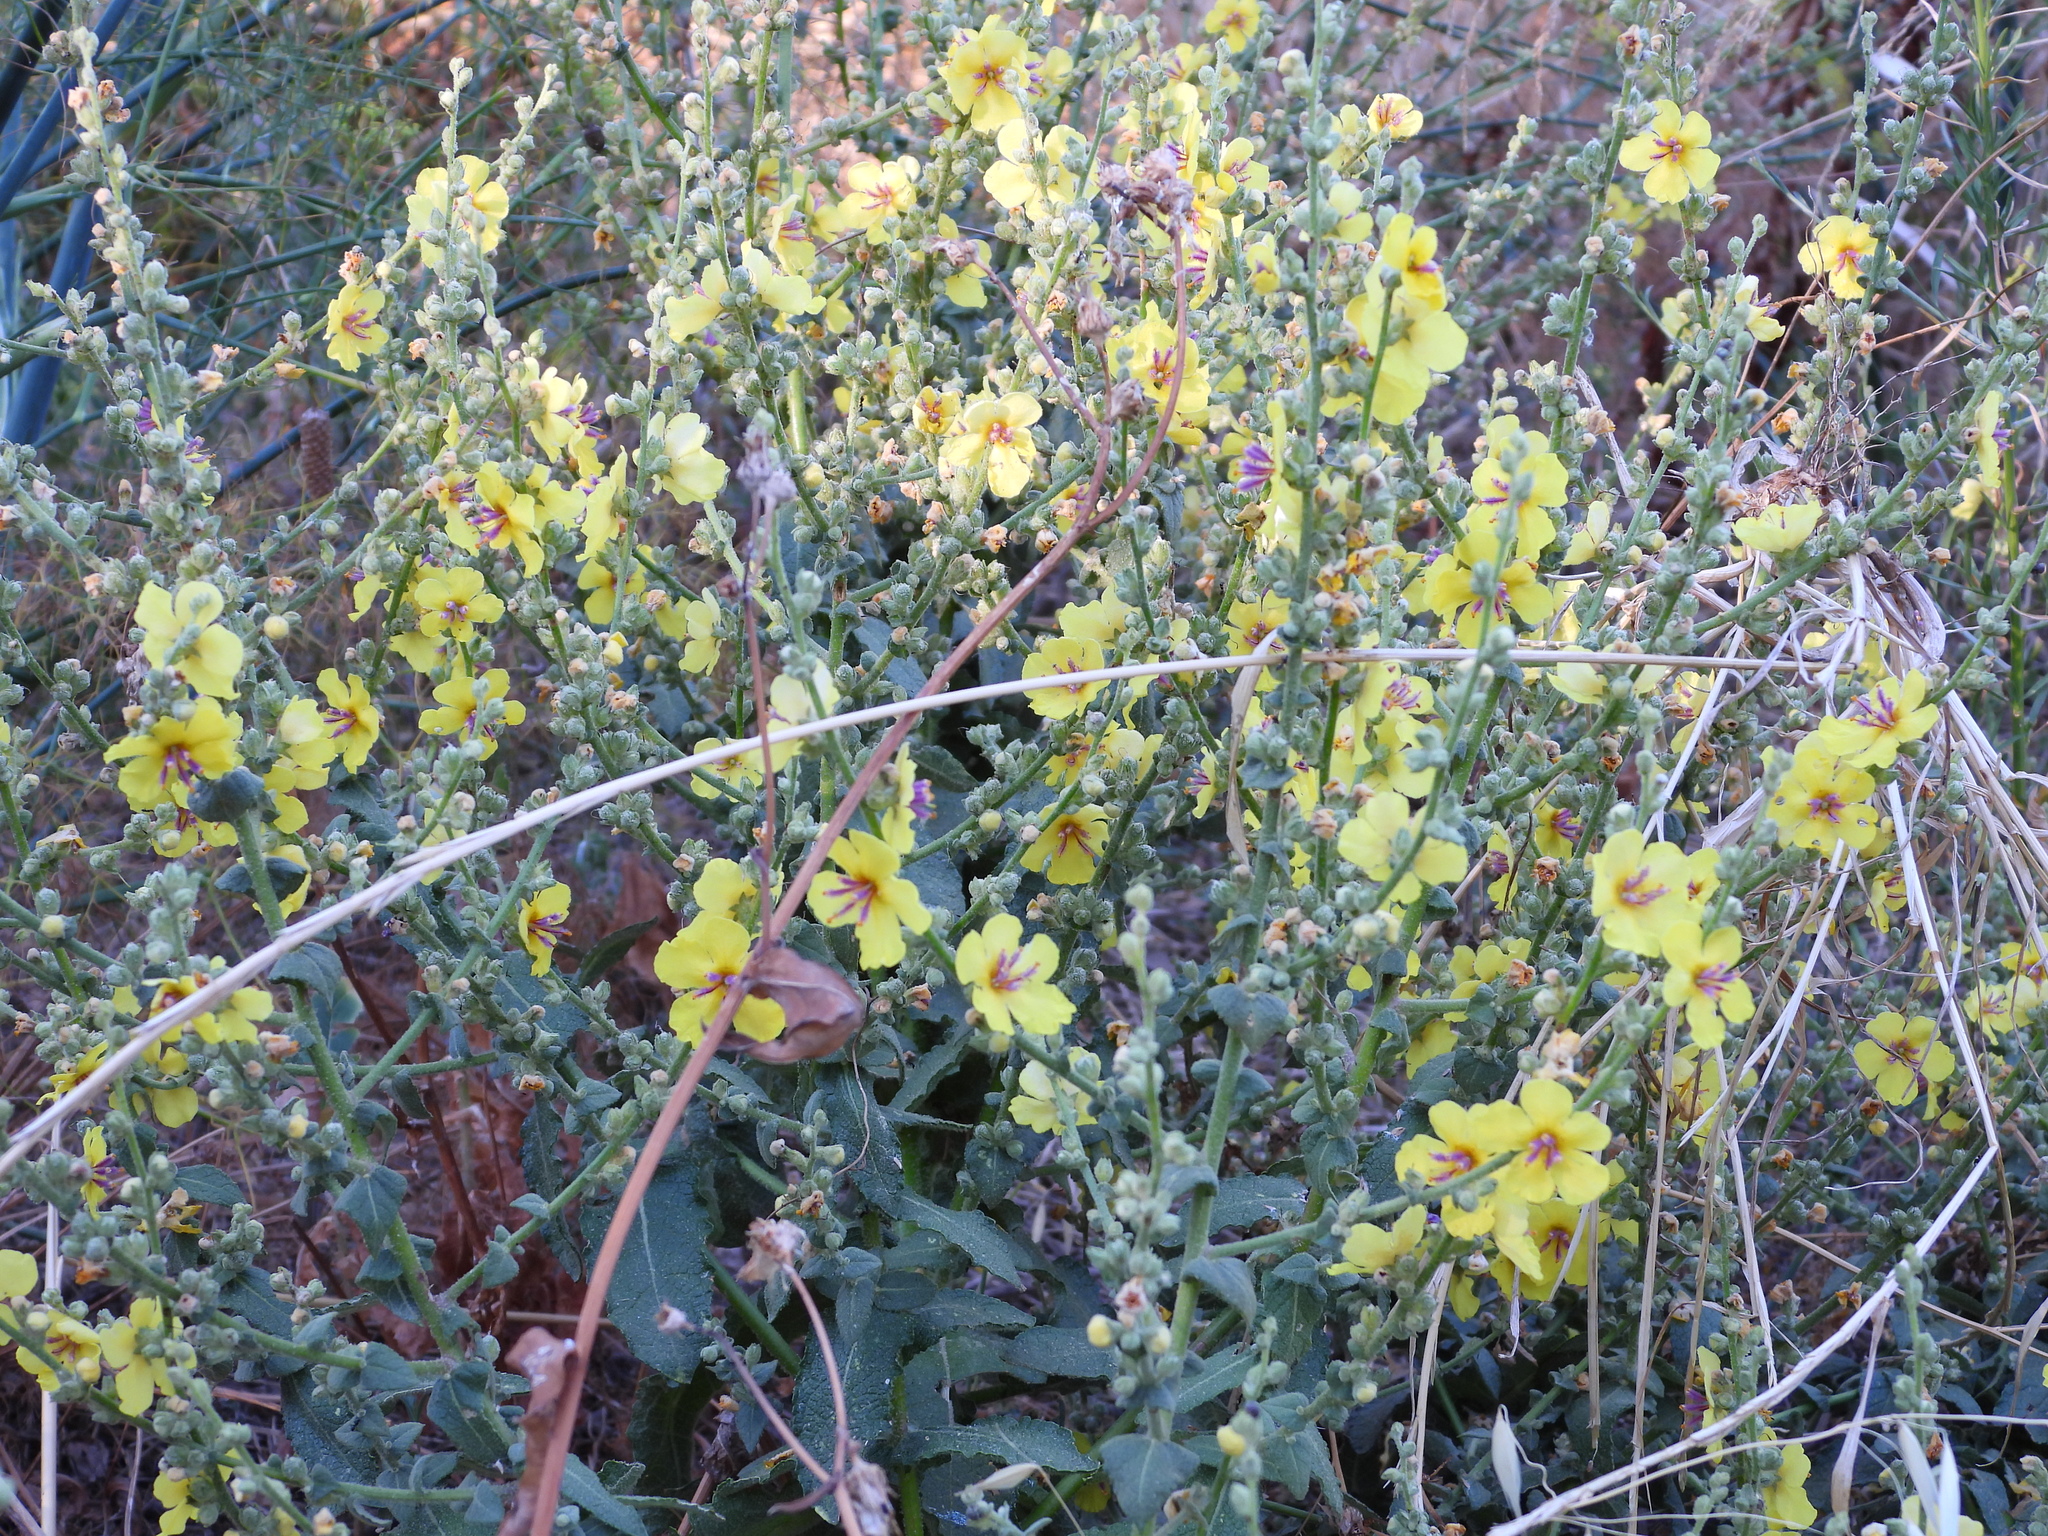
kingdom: Plantae
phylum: Tracheophyta
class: Magnoliopsida
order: Lamiales
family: Scrophulariaceae
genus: Verbascum
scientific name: Verbascum sinuatum
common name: Wavyleaf mullein
